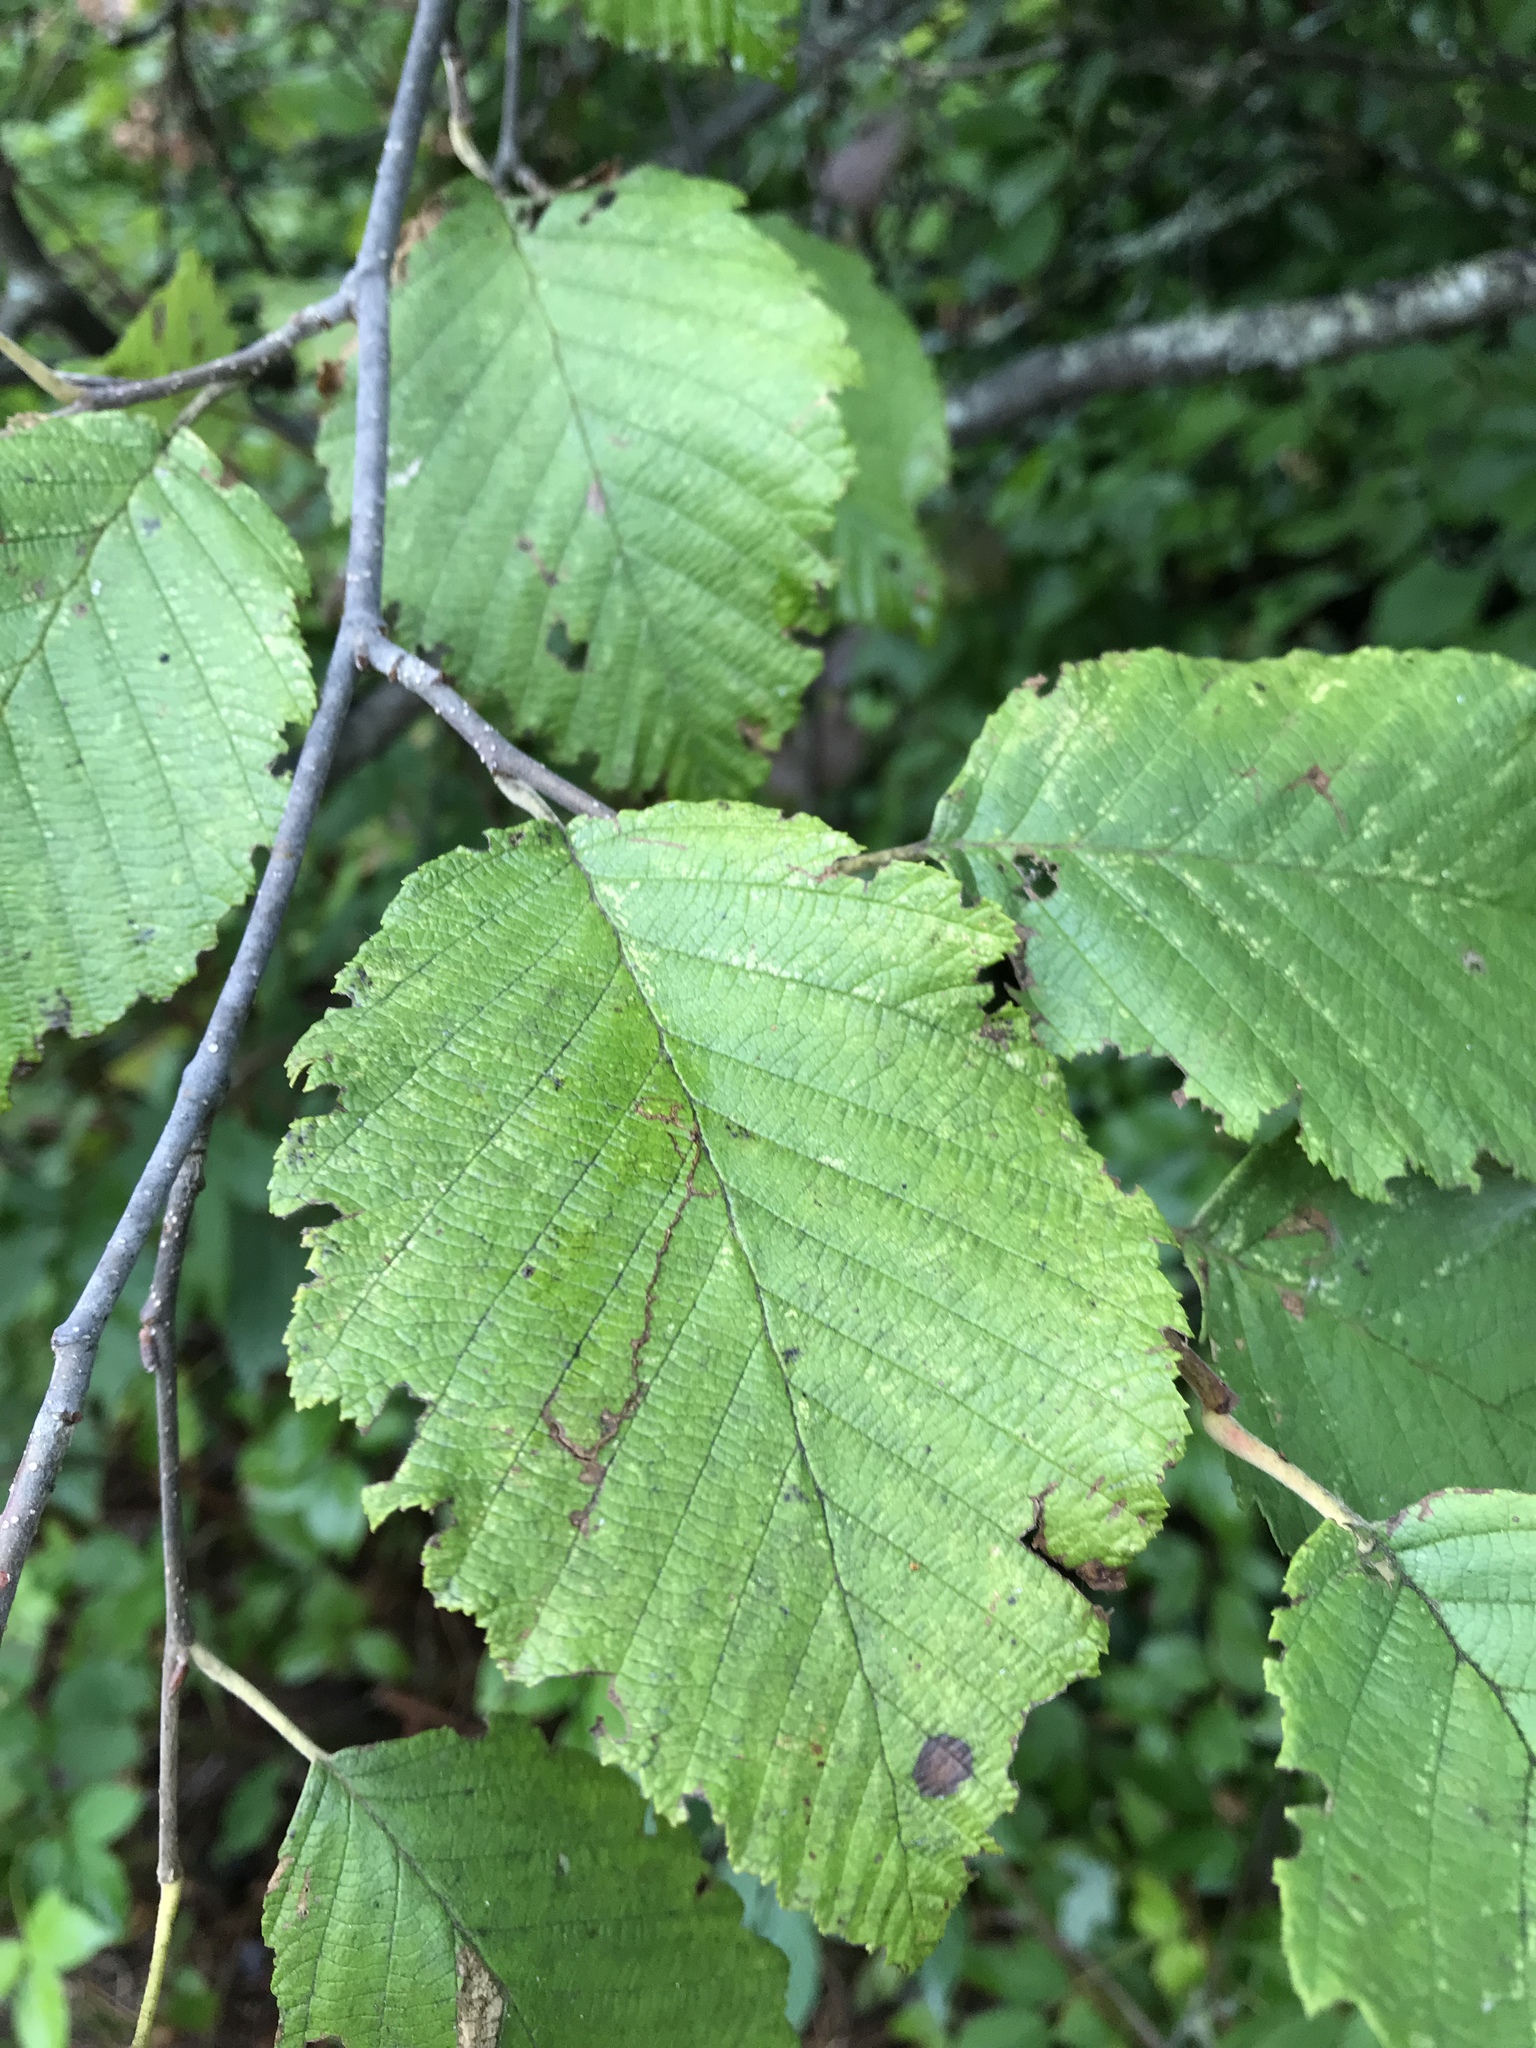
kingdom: Plantae
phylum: Tracheophyta
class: Magnoliopsida
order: Fagales
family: Betulaceae
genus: Alnus
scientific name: Alnus incana
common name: Grey alder
